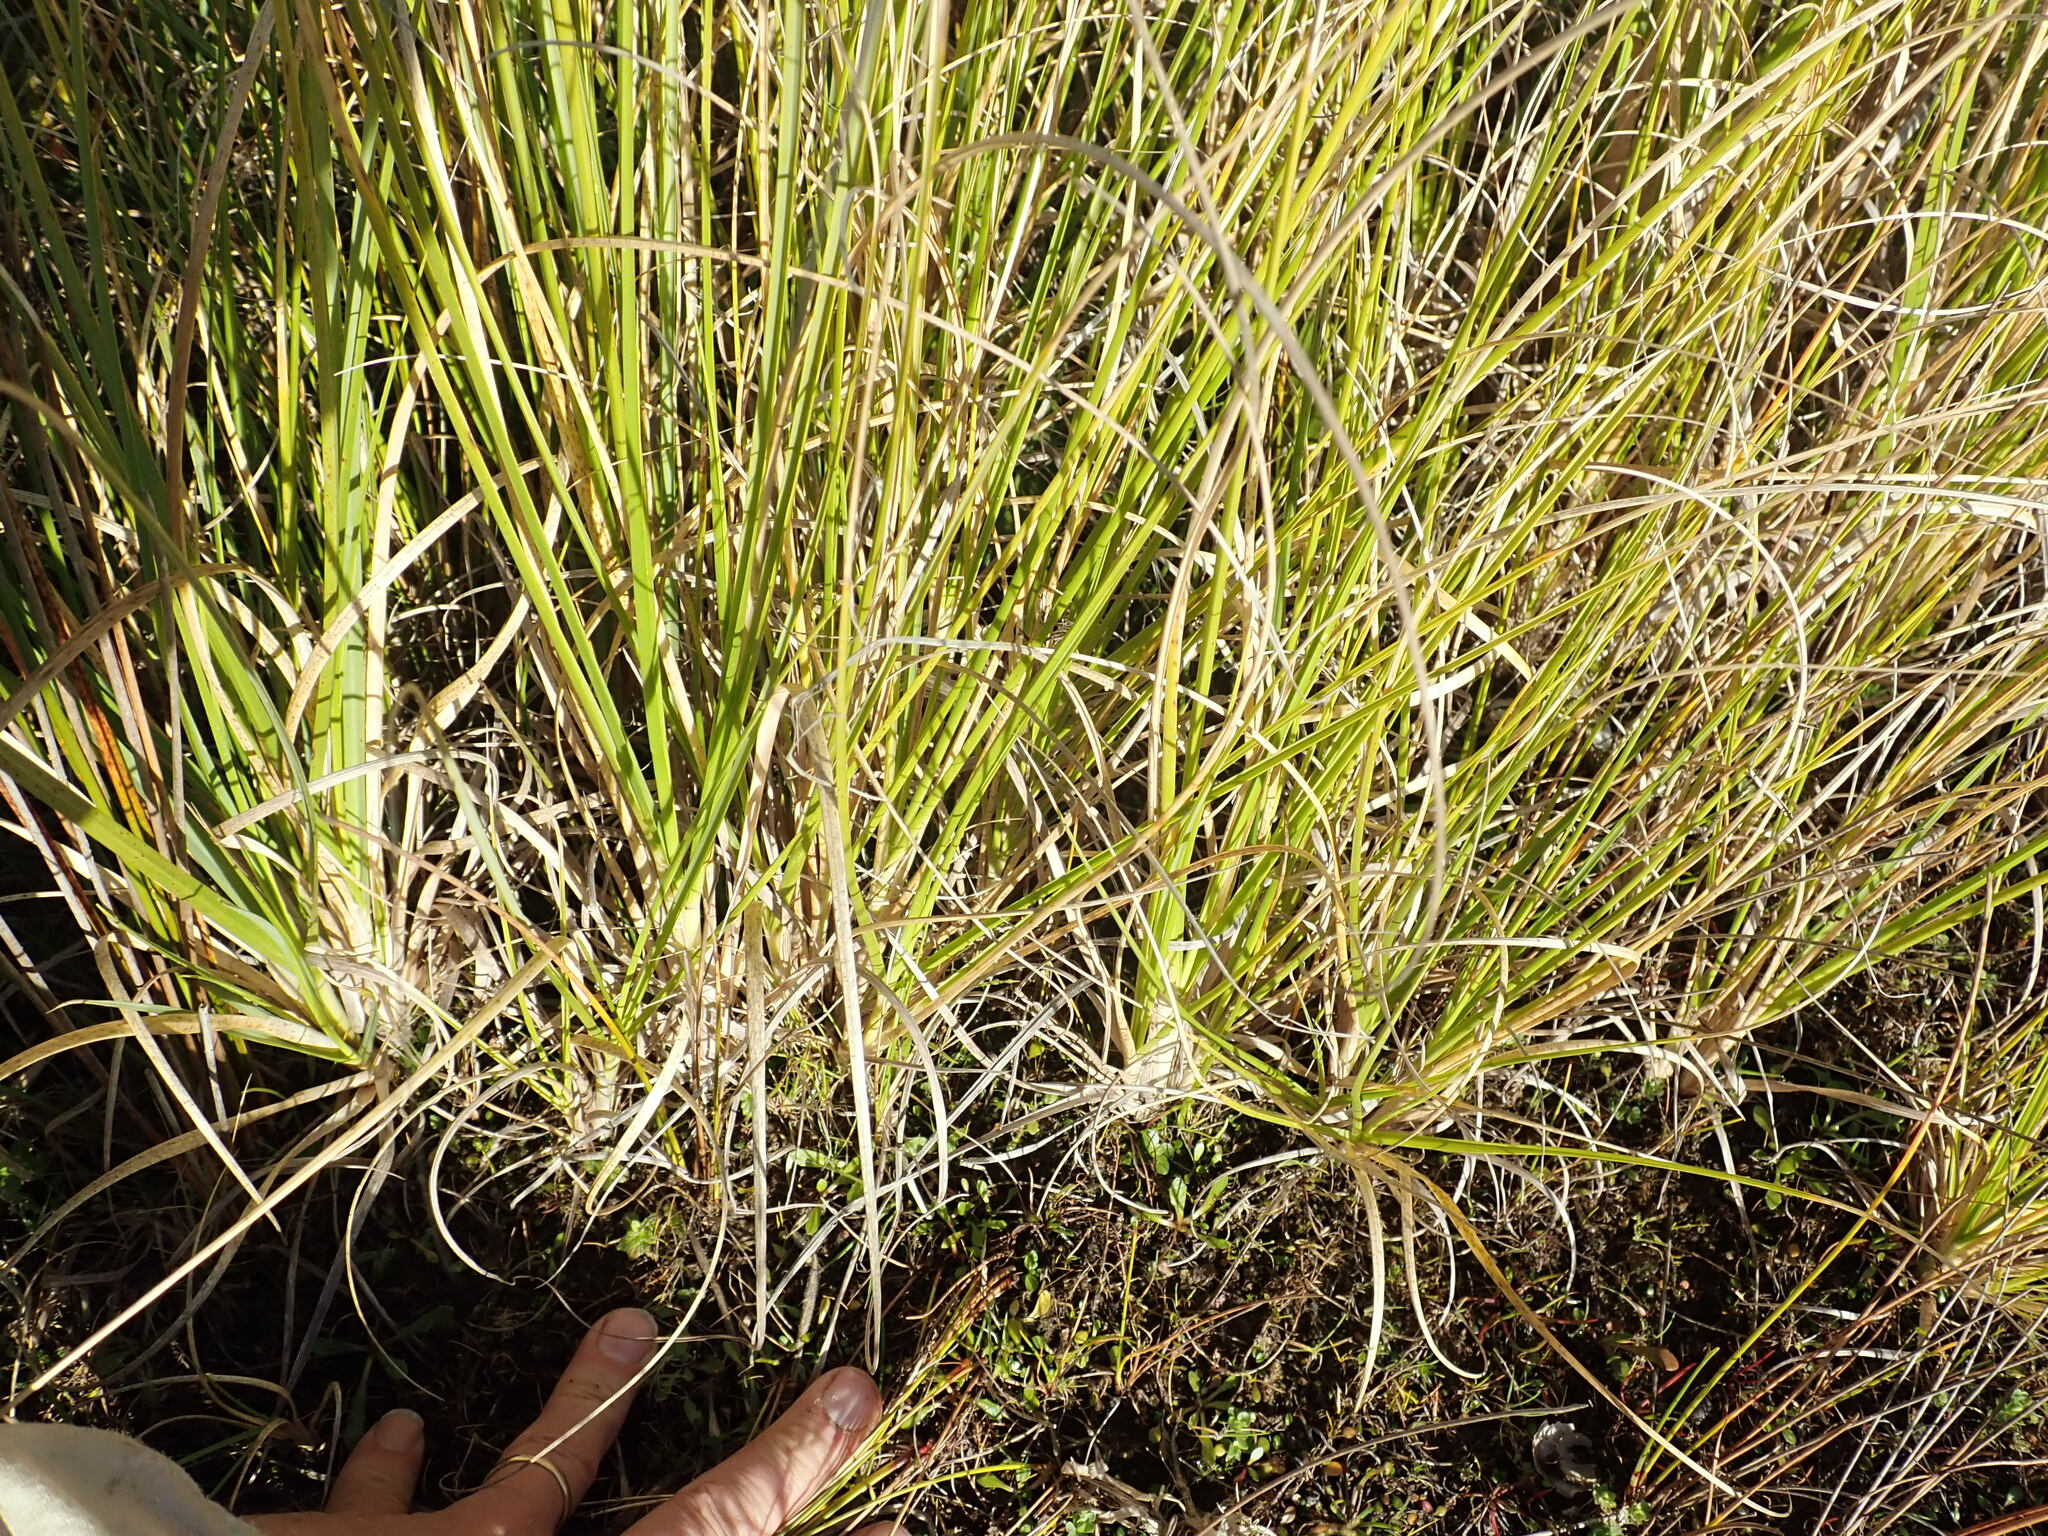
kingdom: Plantae
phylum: Tracheophyta
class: Liliopsida
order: Poales
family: Poaceae
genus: Cortaderia
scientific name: Cortaderia selloana
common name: Uruguayan pampas grass
